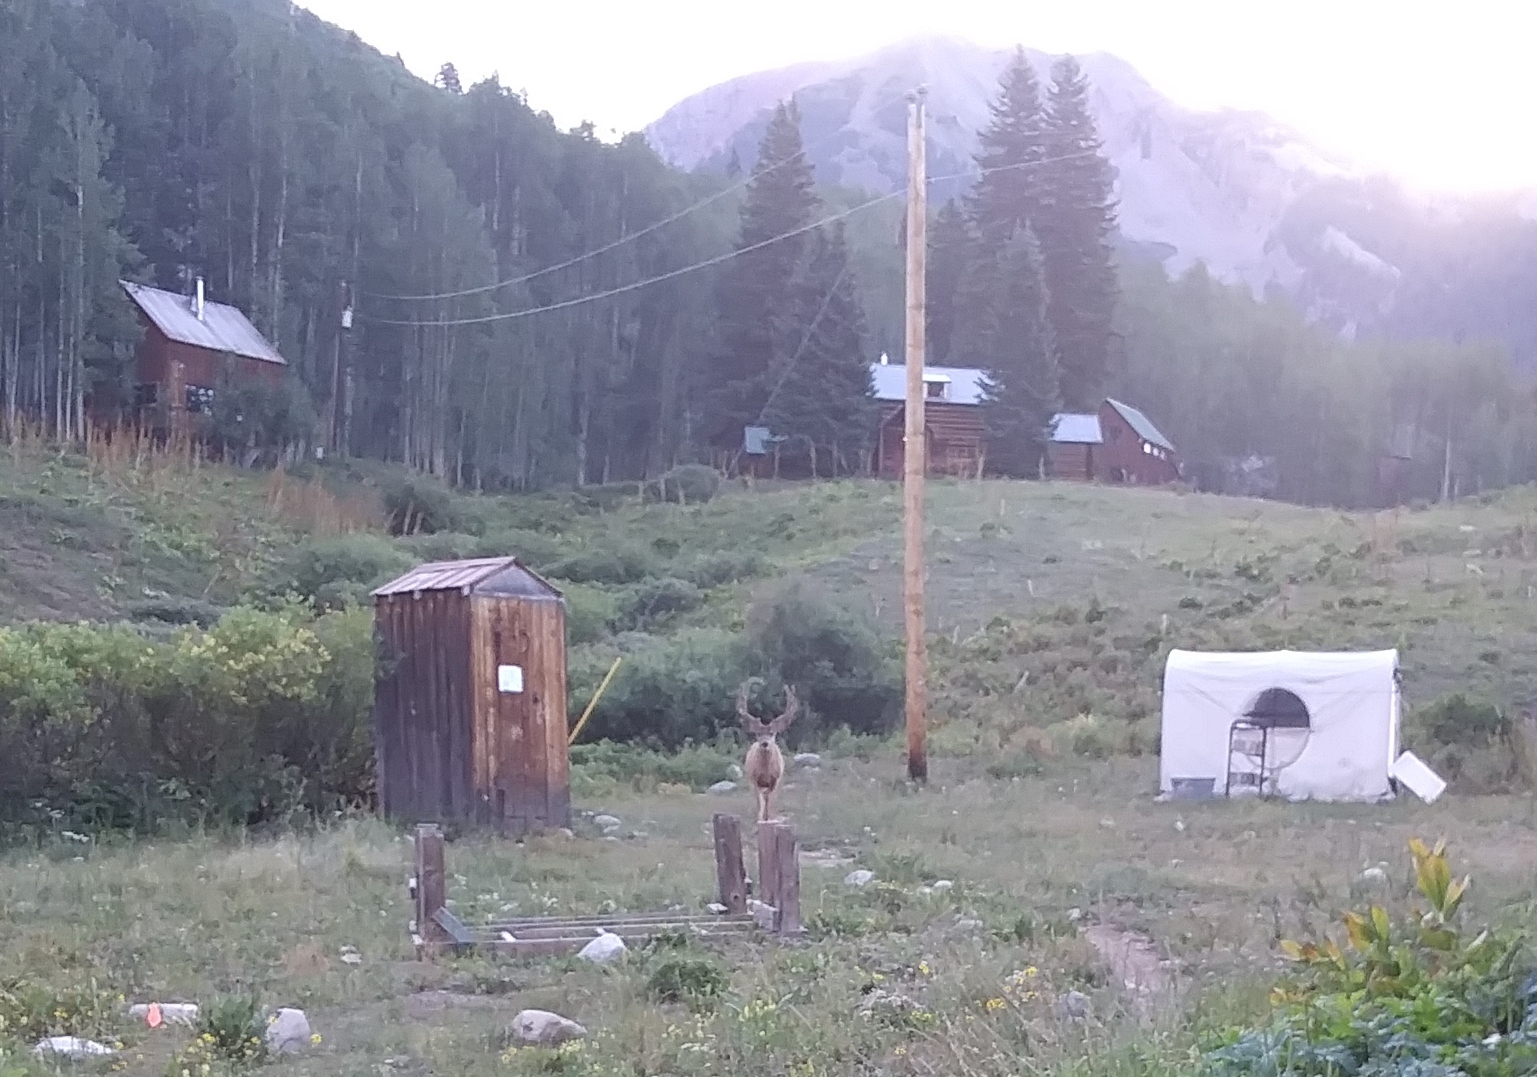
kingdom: Animalia
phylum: Chordata
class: Mammalia
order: Artiodactyla
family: Cervidae
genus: Odocoileus
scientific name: Odocoileus hemionus
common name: Mule deer
